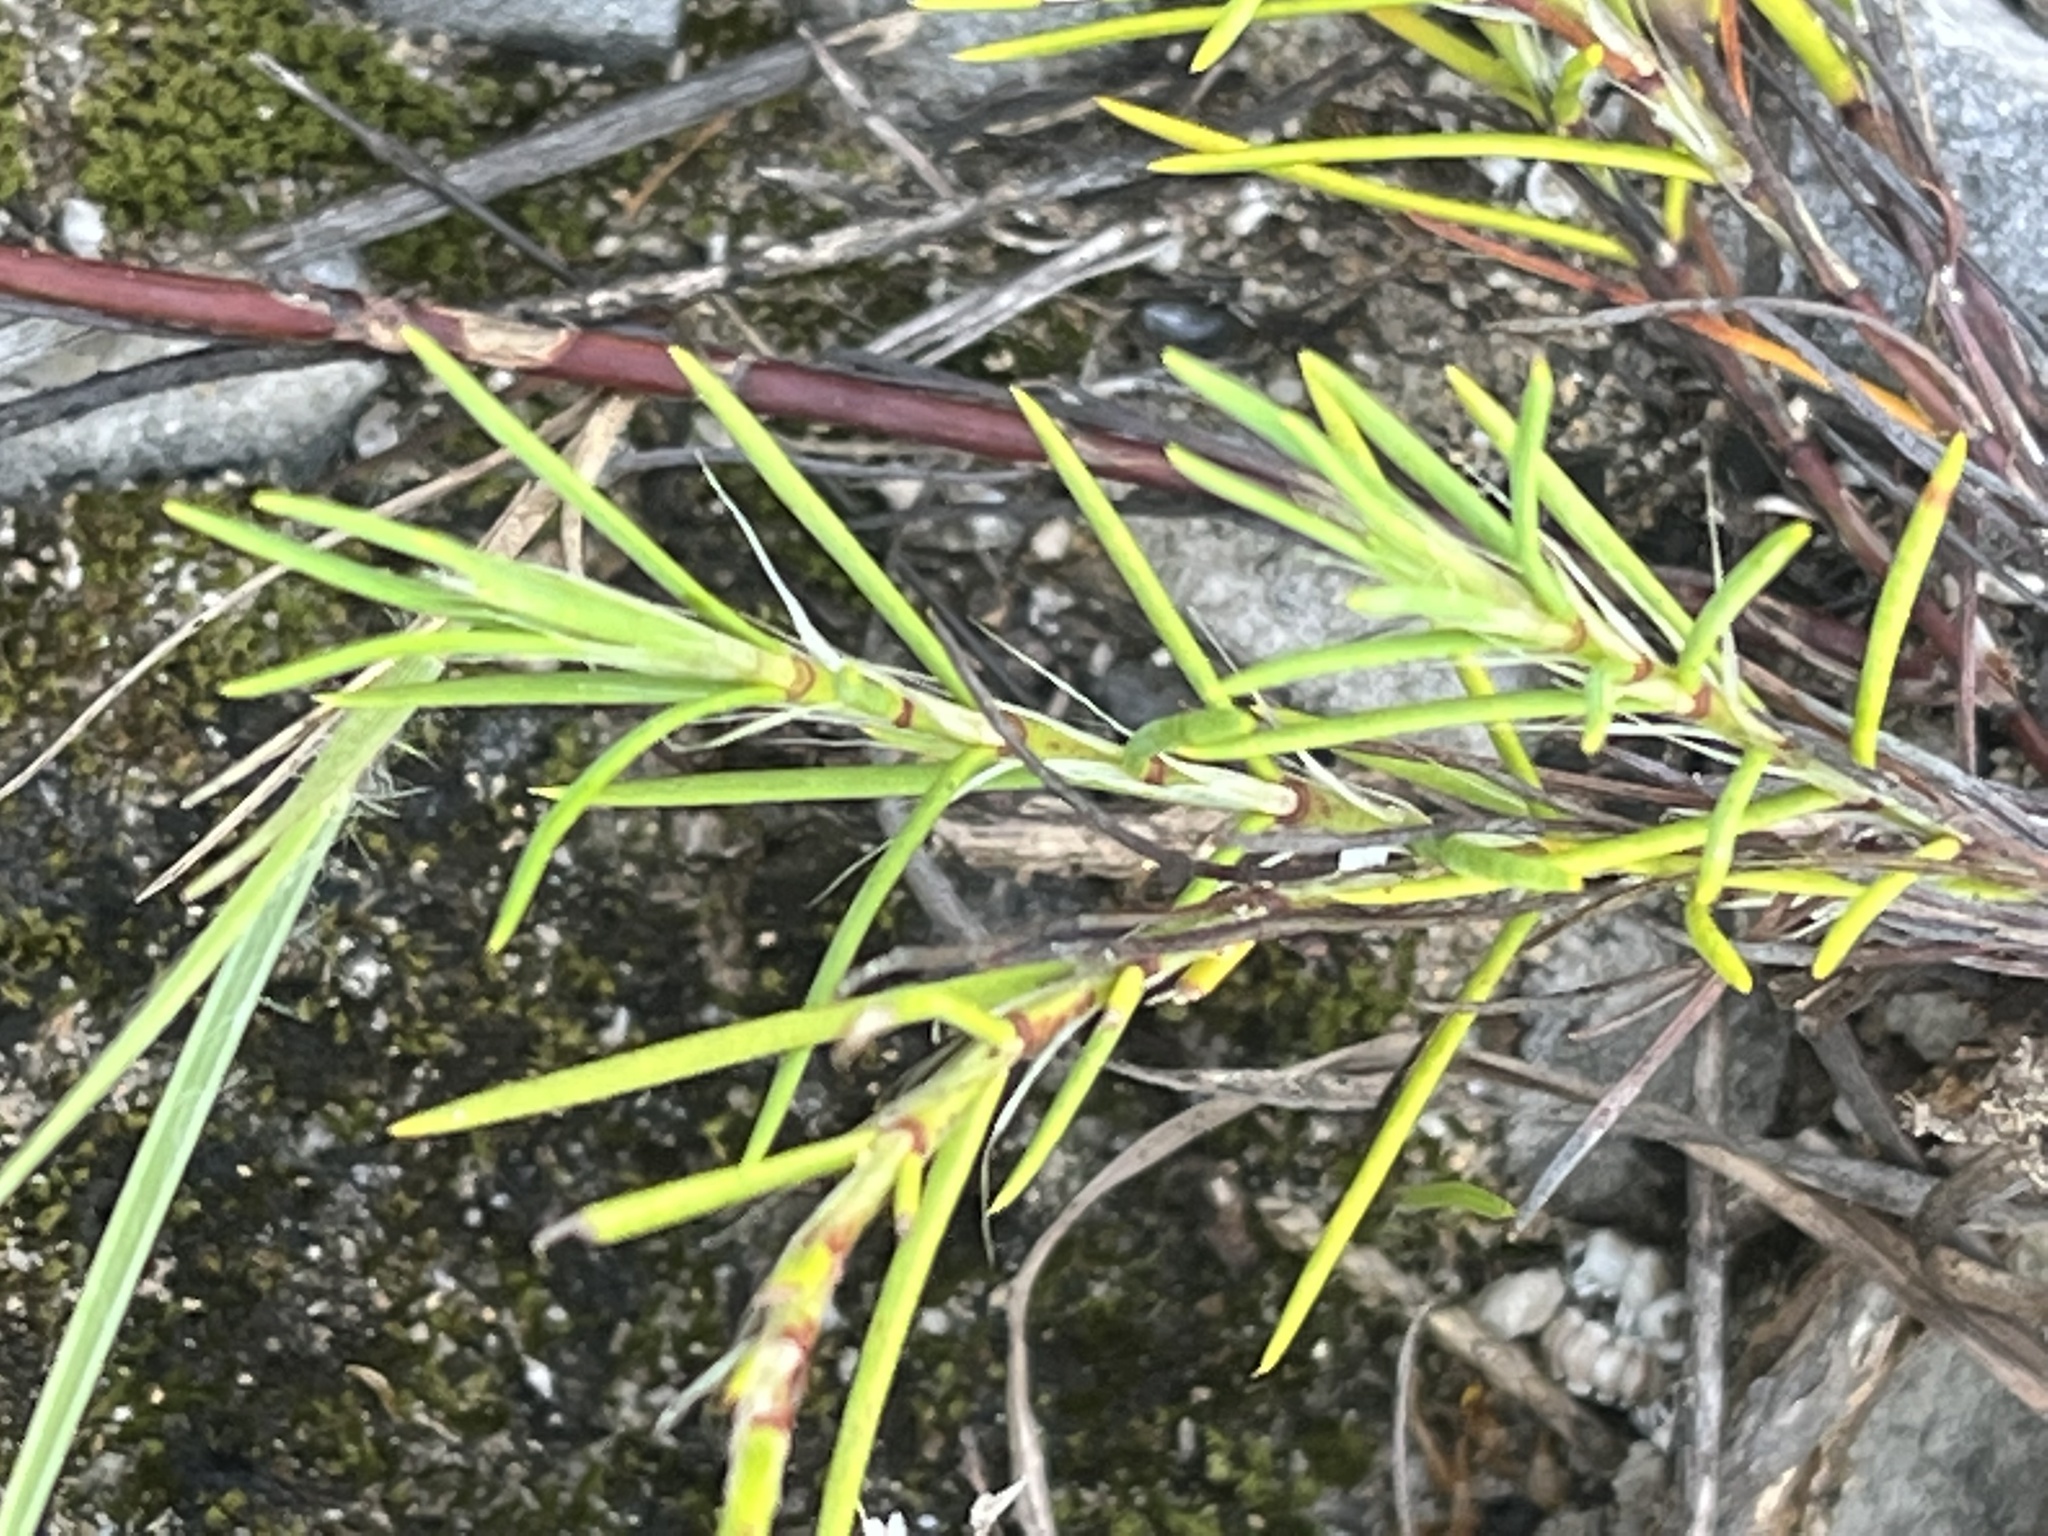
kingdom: Plantae
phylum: Tracheophyta
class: Magnoliopsida
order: Caryophyllales
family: Caryophyllaceae
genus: Paronychia
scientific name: Paronychia virginica
